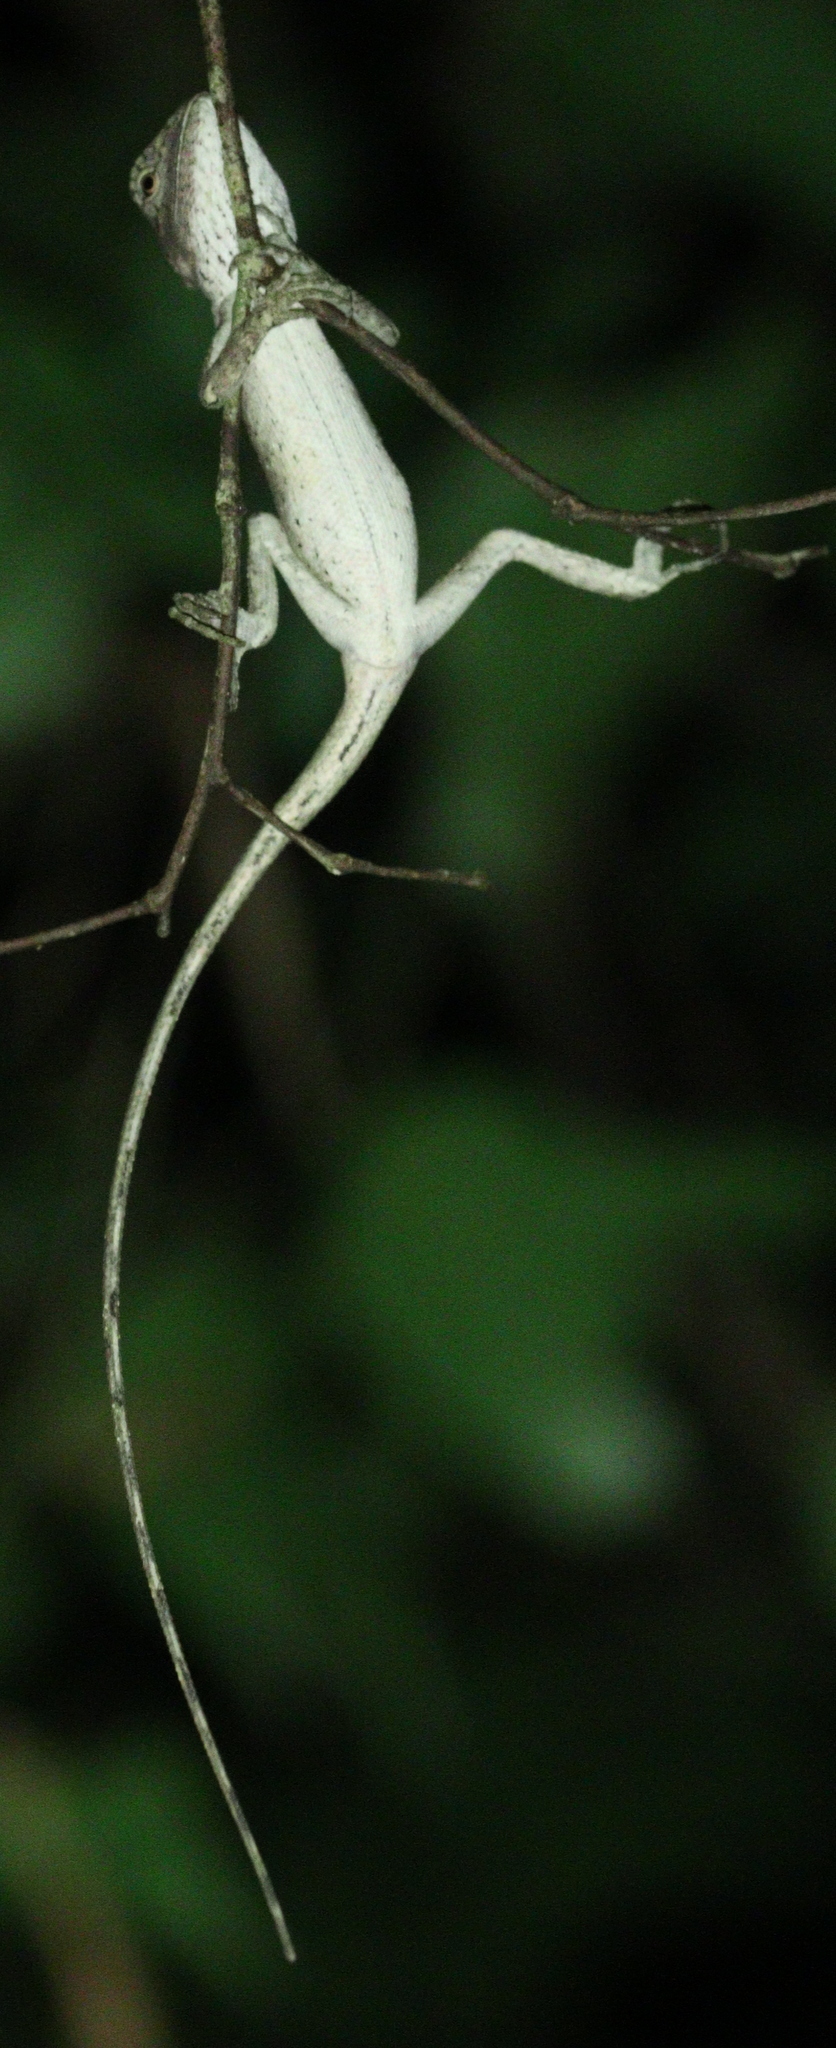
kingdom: Animalia
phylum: Chordata
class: Squamata
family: Agamidae
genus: Calotes
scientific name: Calotes emma
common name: Thailand bloodsucker
